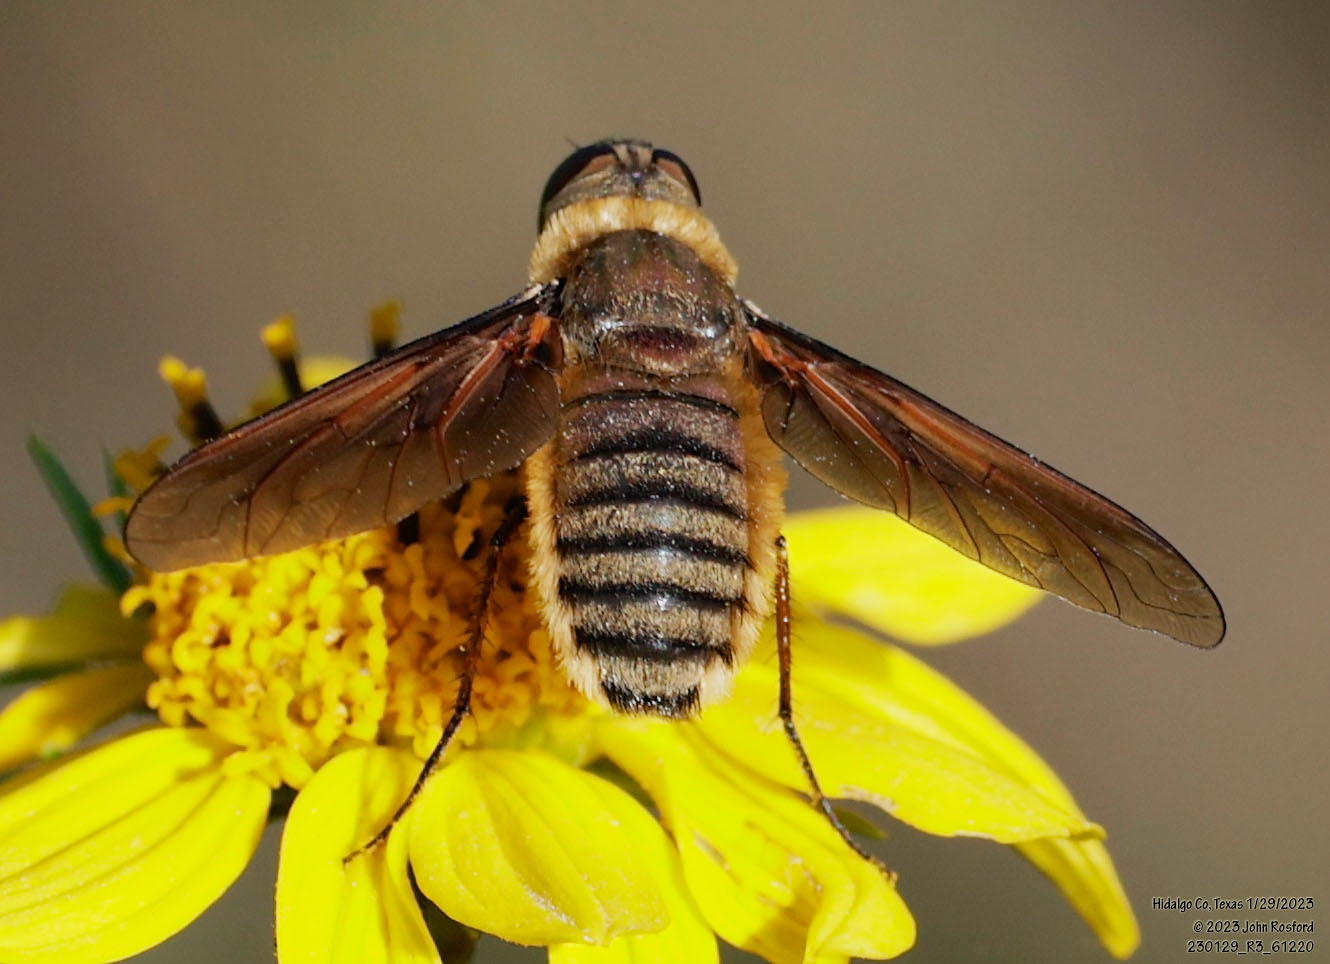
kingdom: Animalia
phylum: Arthropoda
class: Insecta
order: Diptera
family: Bombyliidae
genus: Poecilanthrax
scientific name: Poecilanthrax lucifer
